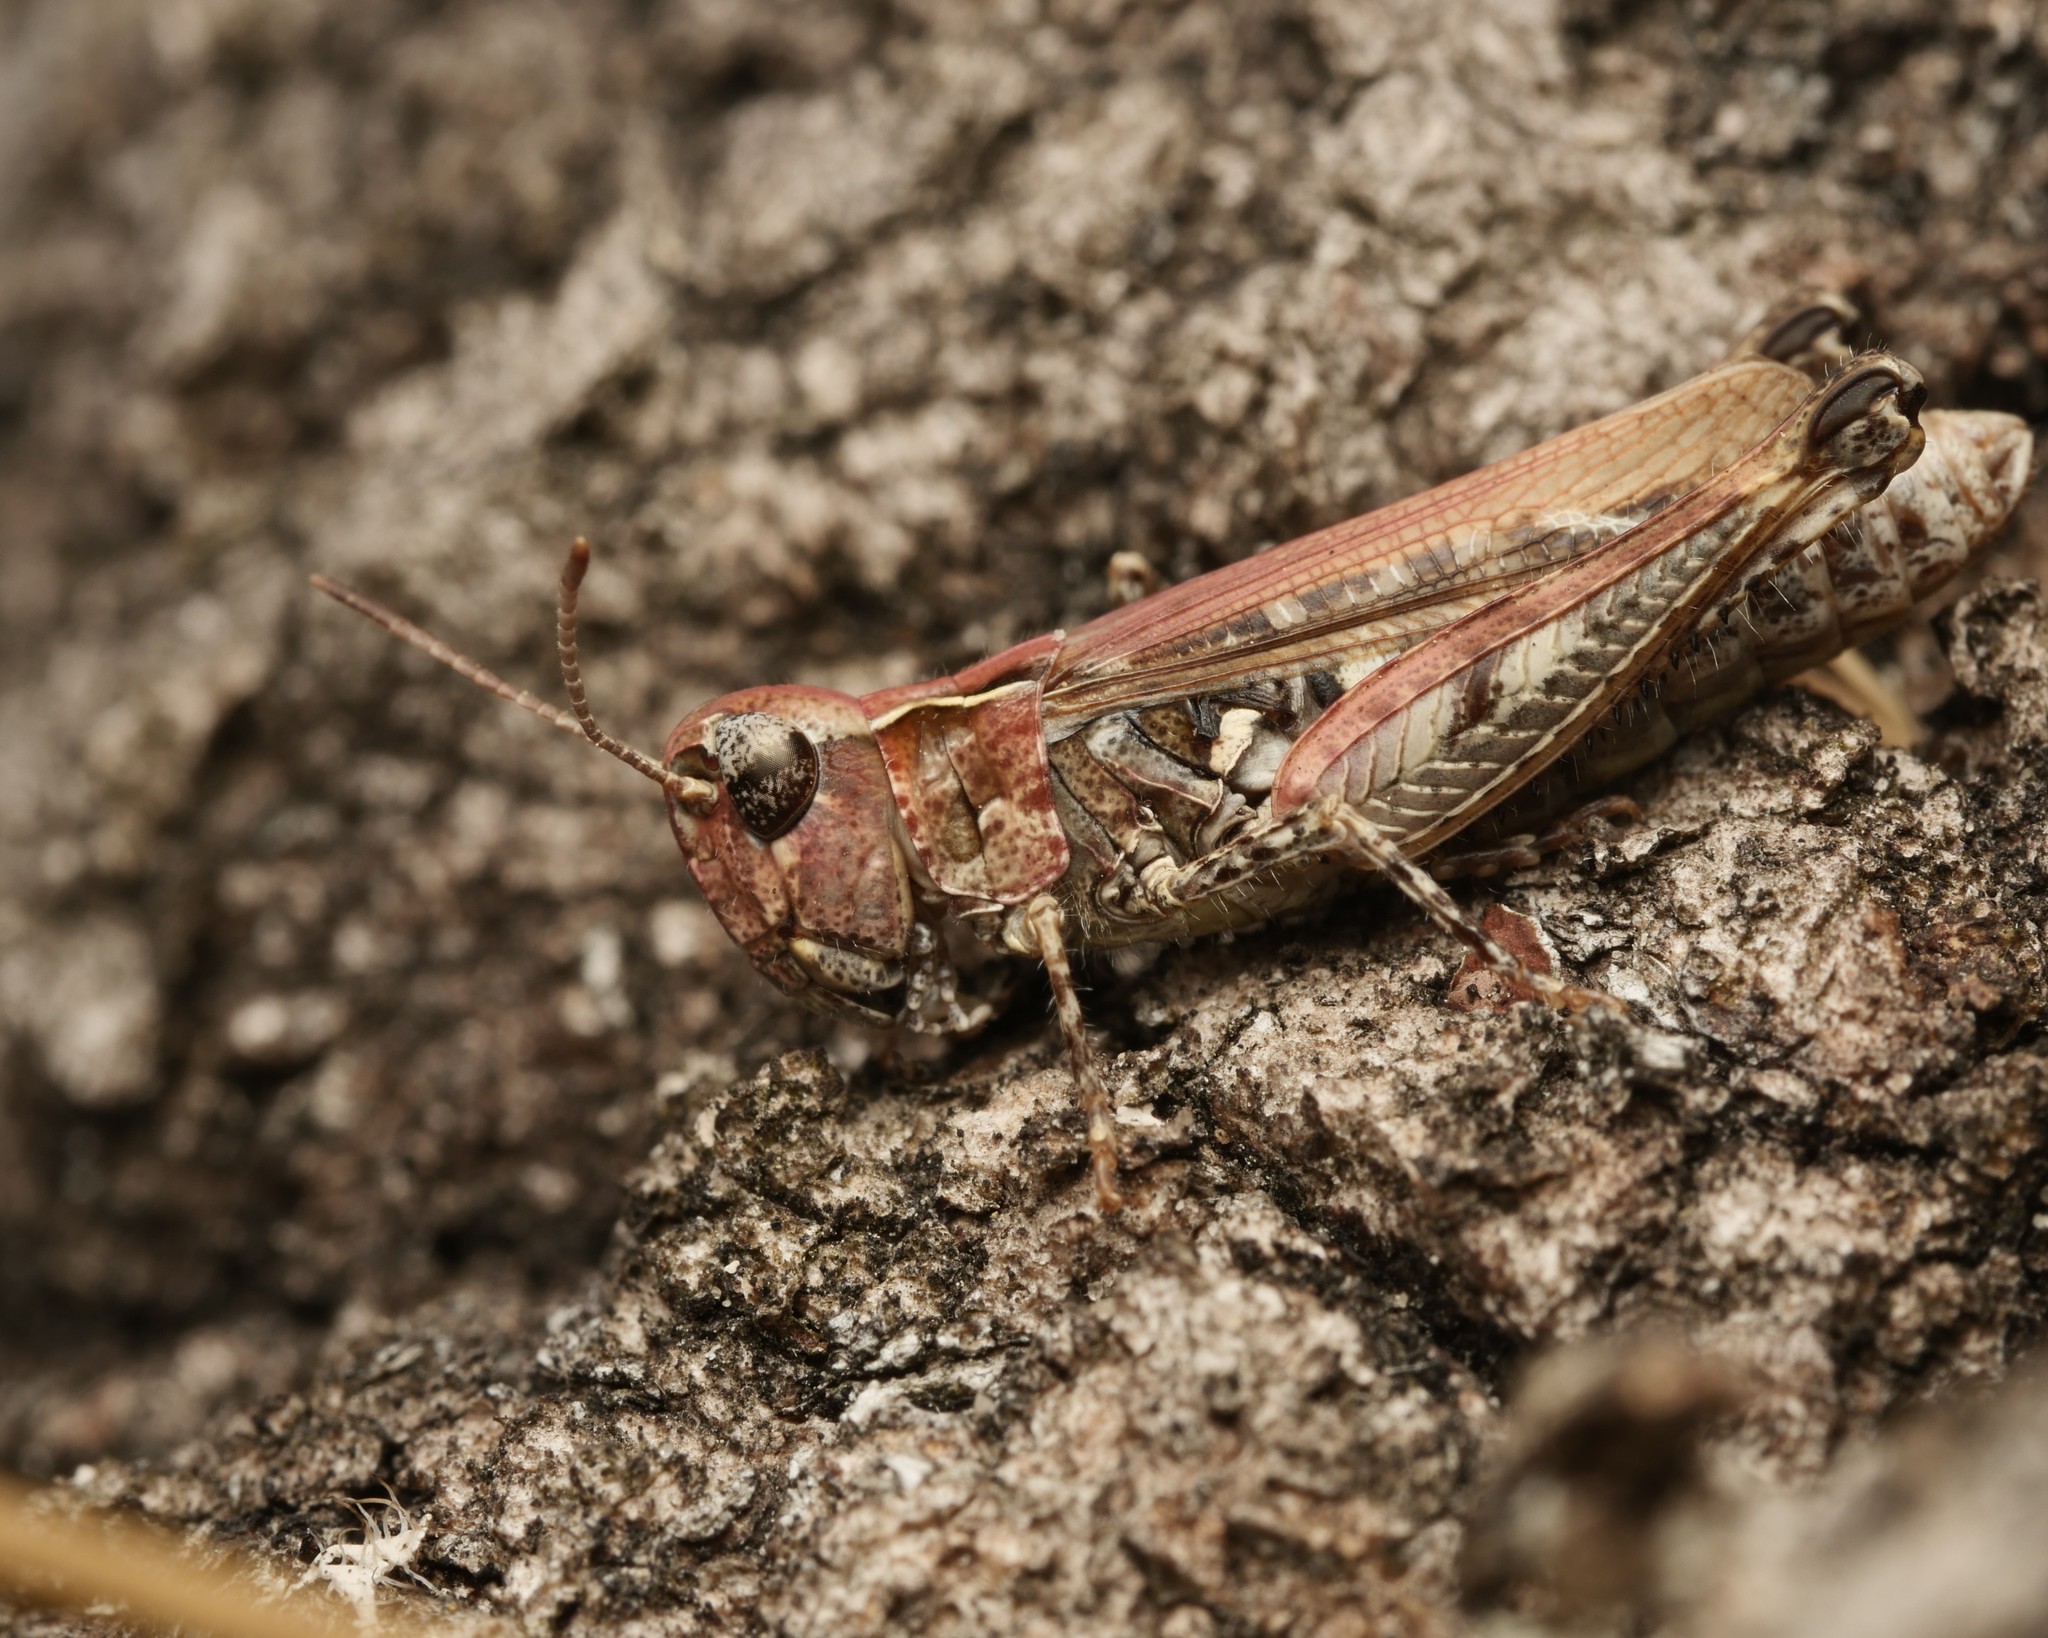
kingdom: Animalia
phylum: Arthropoda
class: Insecta
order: Orthoptera
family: Acrididae
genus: Myrmeleotettix
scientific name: Myrmeleotettix maculatus
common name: Mottled grasshopper
